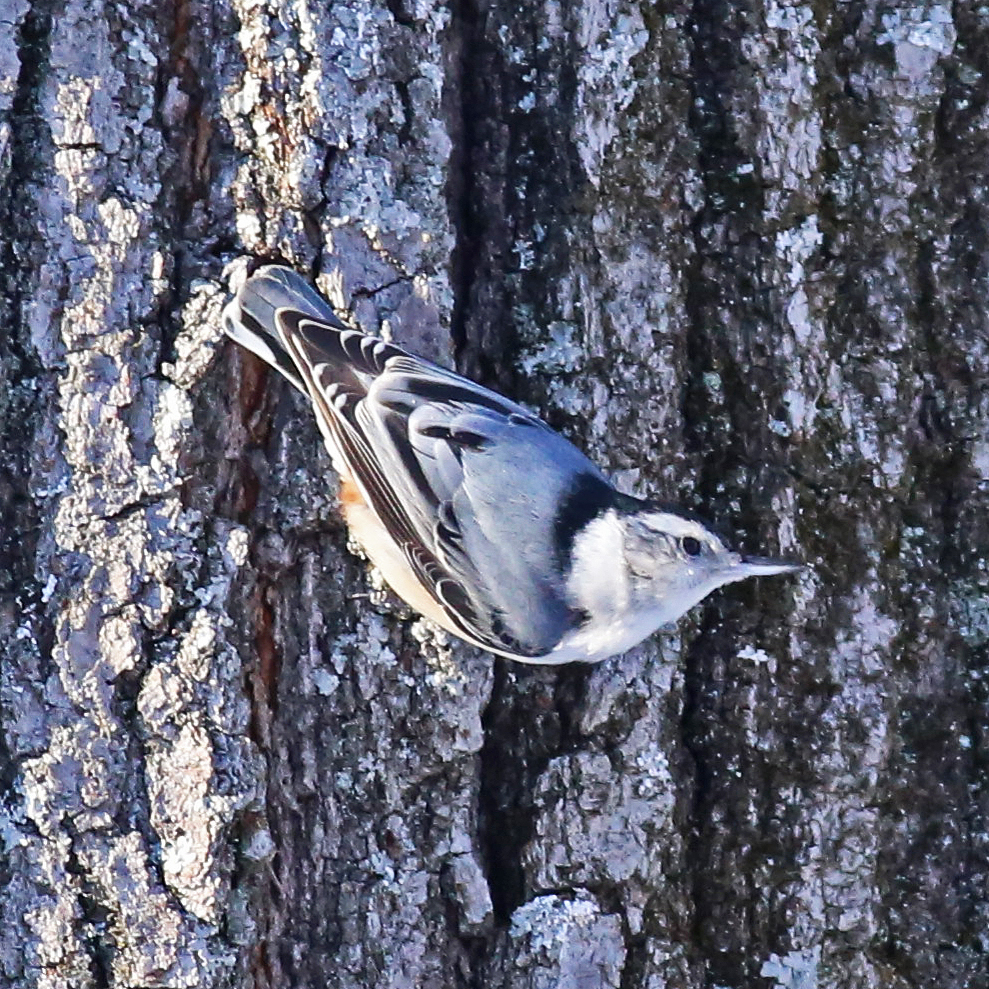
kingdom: Animalia
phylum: Chordata
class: Aves
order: Passeriformes
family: Sittidae
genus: Sitta
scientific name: Sitta carolinensis
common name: White-breasted nuthatch
